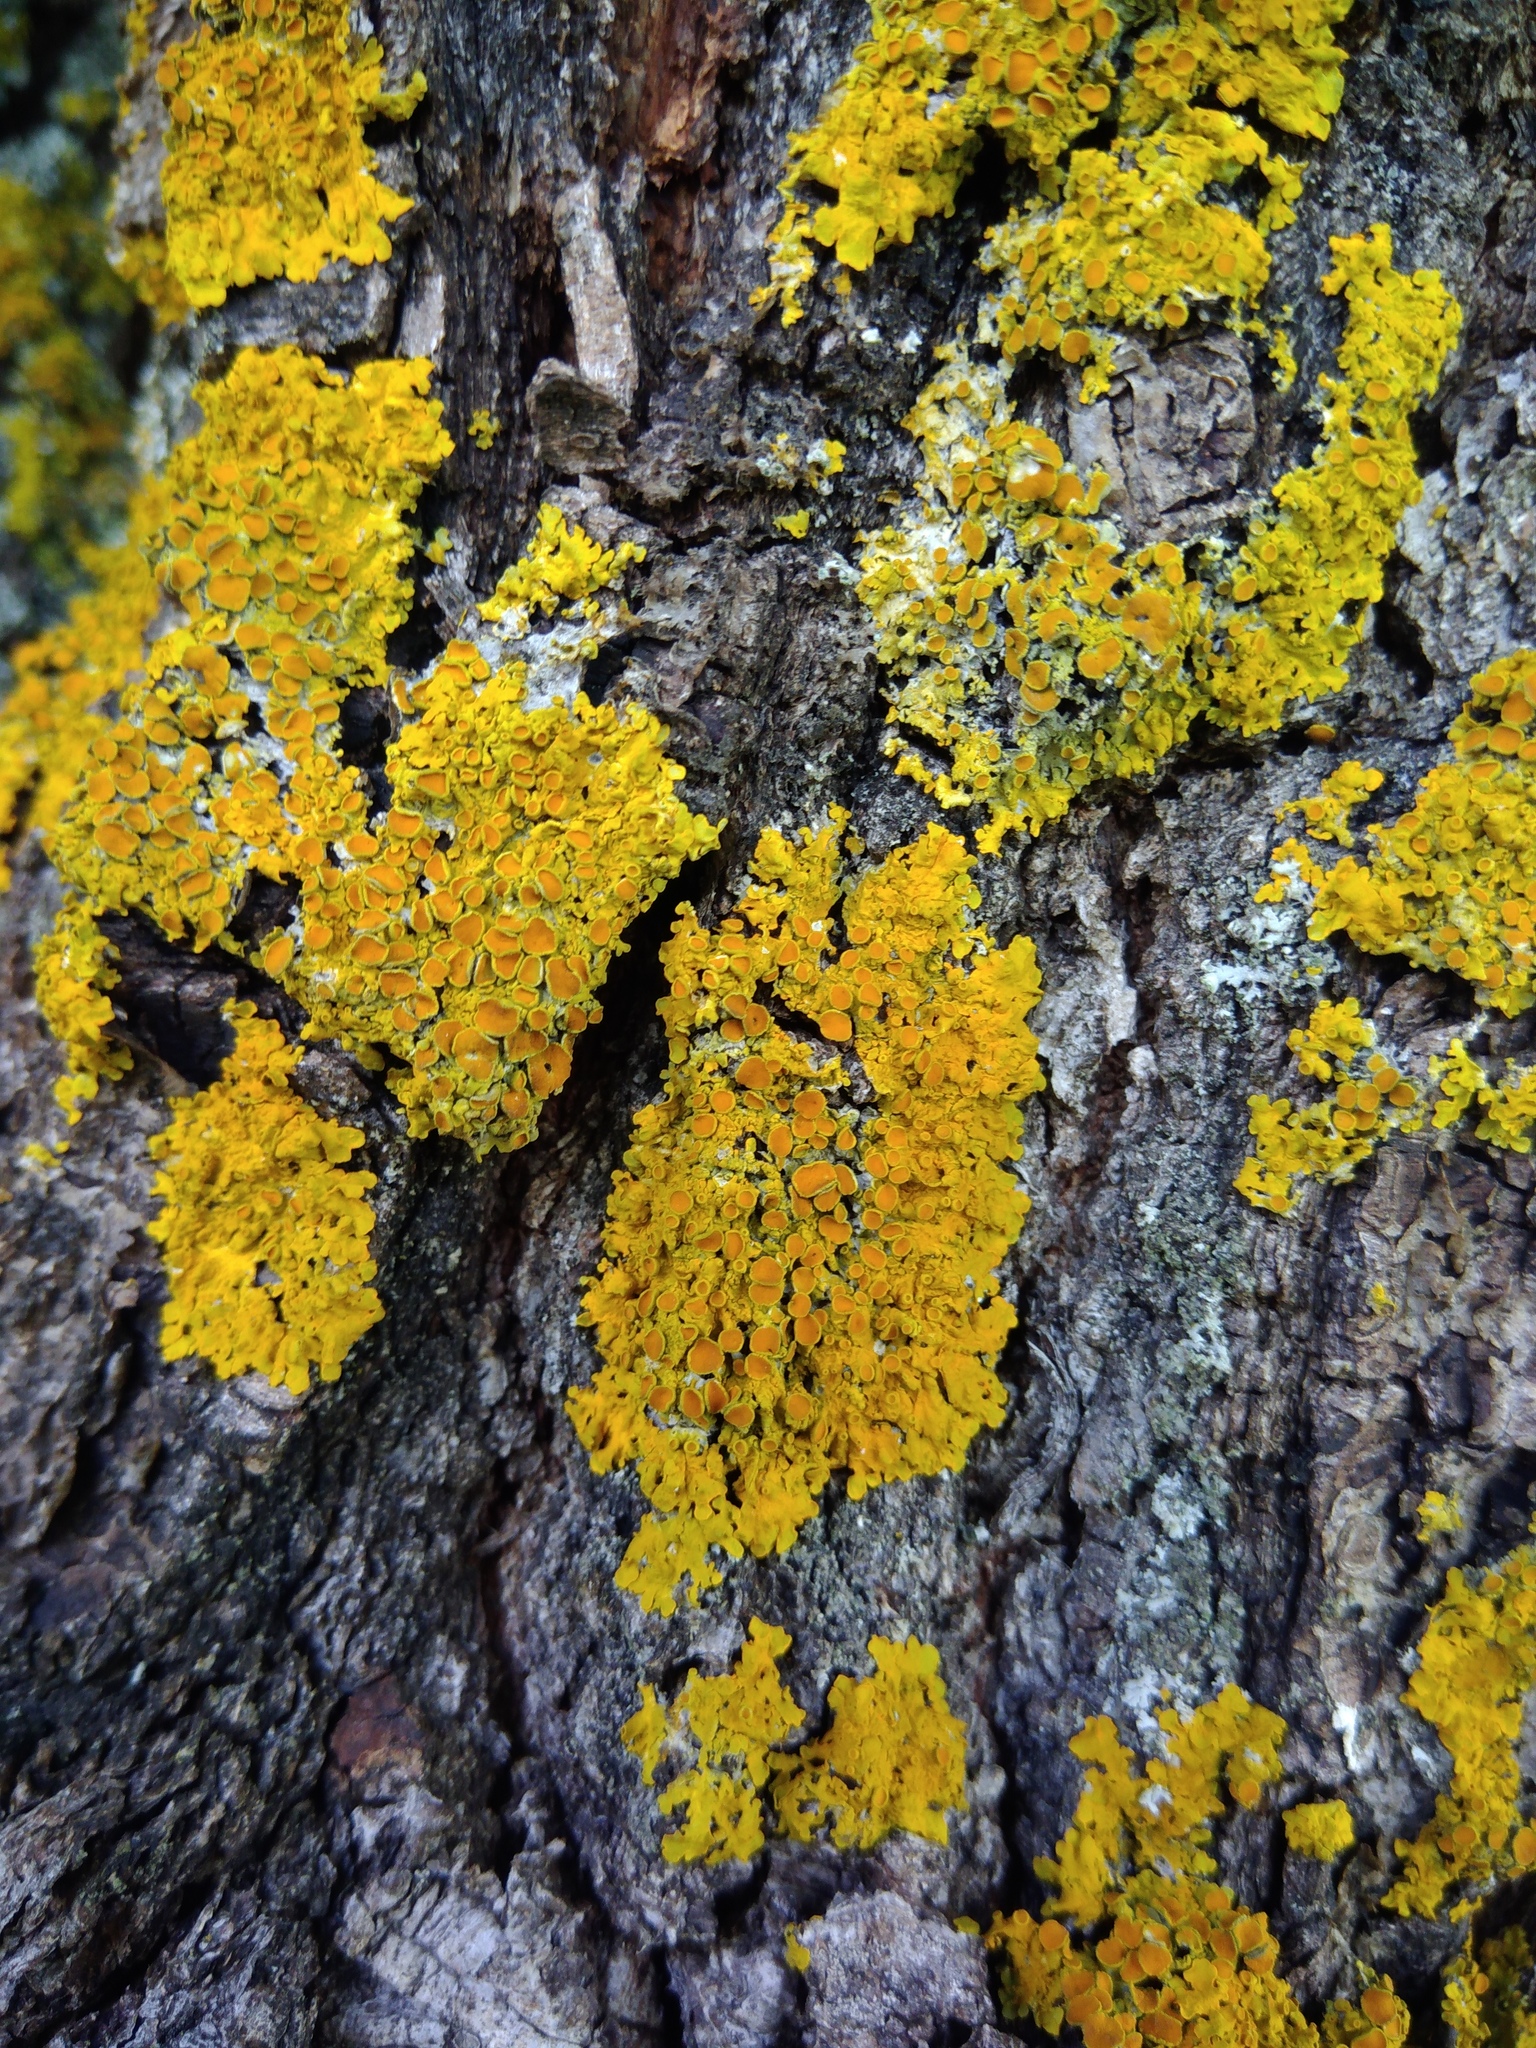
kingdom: Fungi
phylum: Ascomycota
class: Lecanoromycetes
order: Teloschistales
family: Teloschistaceae
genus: Xanthoria
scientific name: Xanthoria parietina
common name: Common orange lichen
